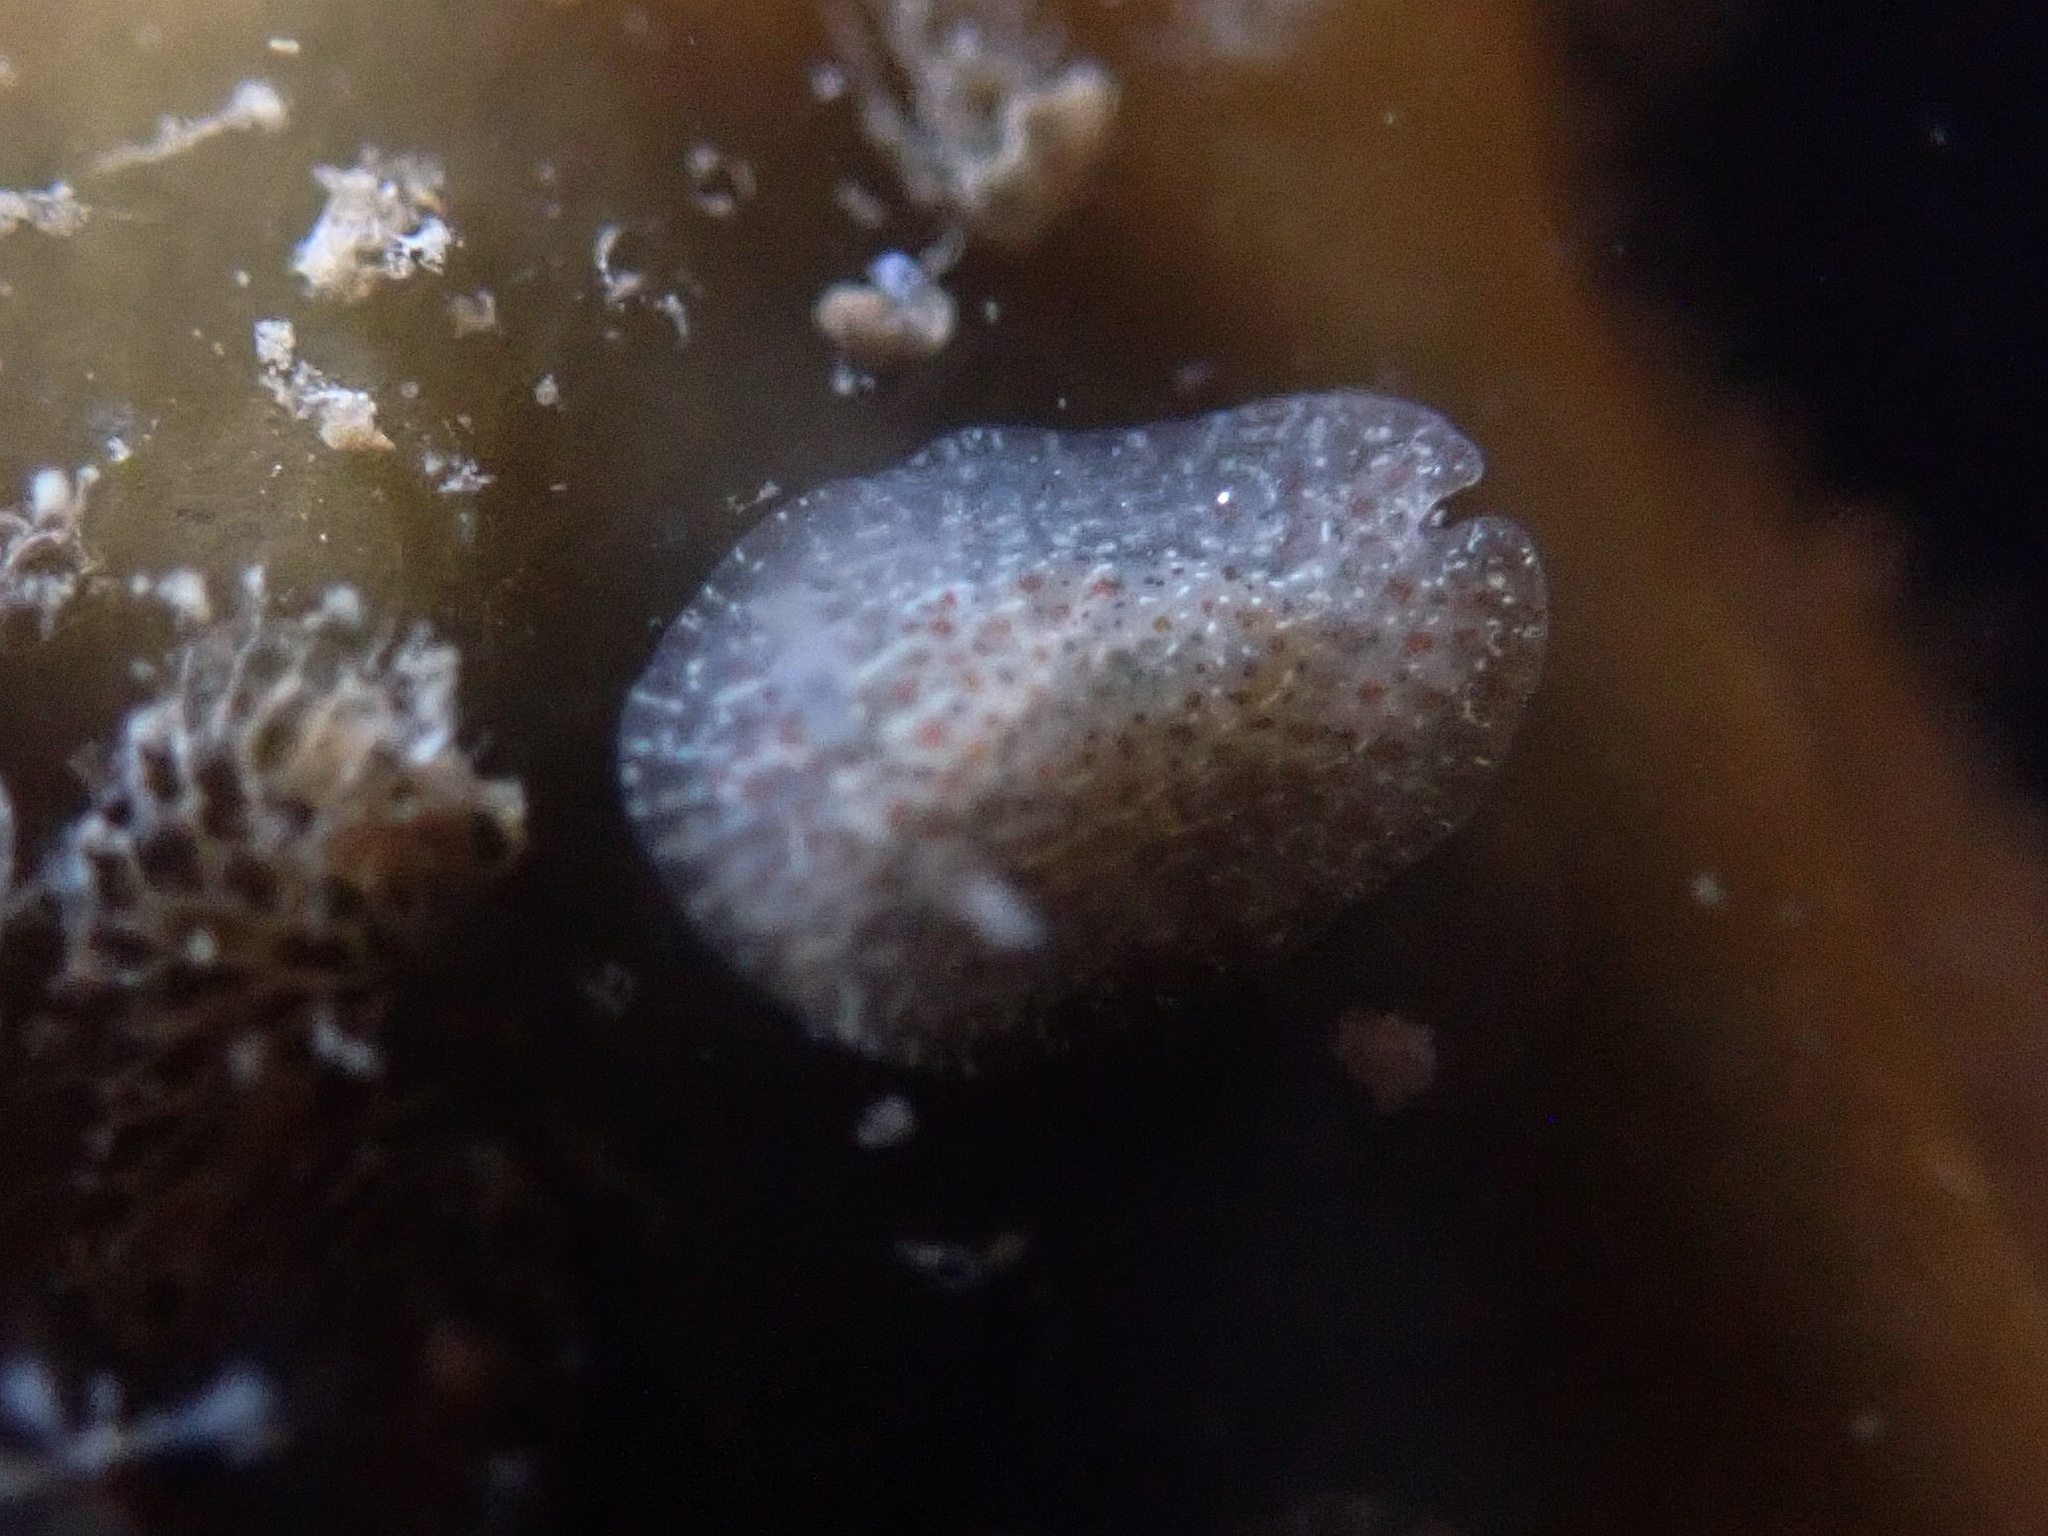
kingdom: Animalia
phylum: Mollusca
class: Gastropoda
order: Nudibranchia
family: Corambidae
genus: Corambe
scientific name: Corambe pacifica
